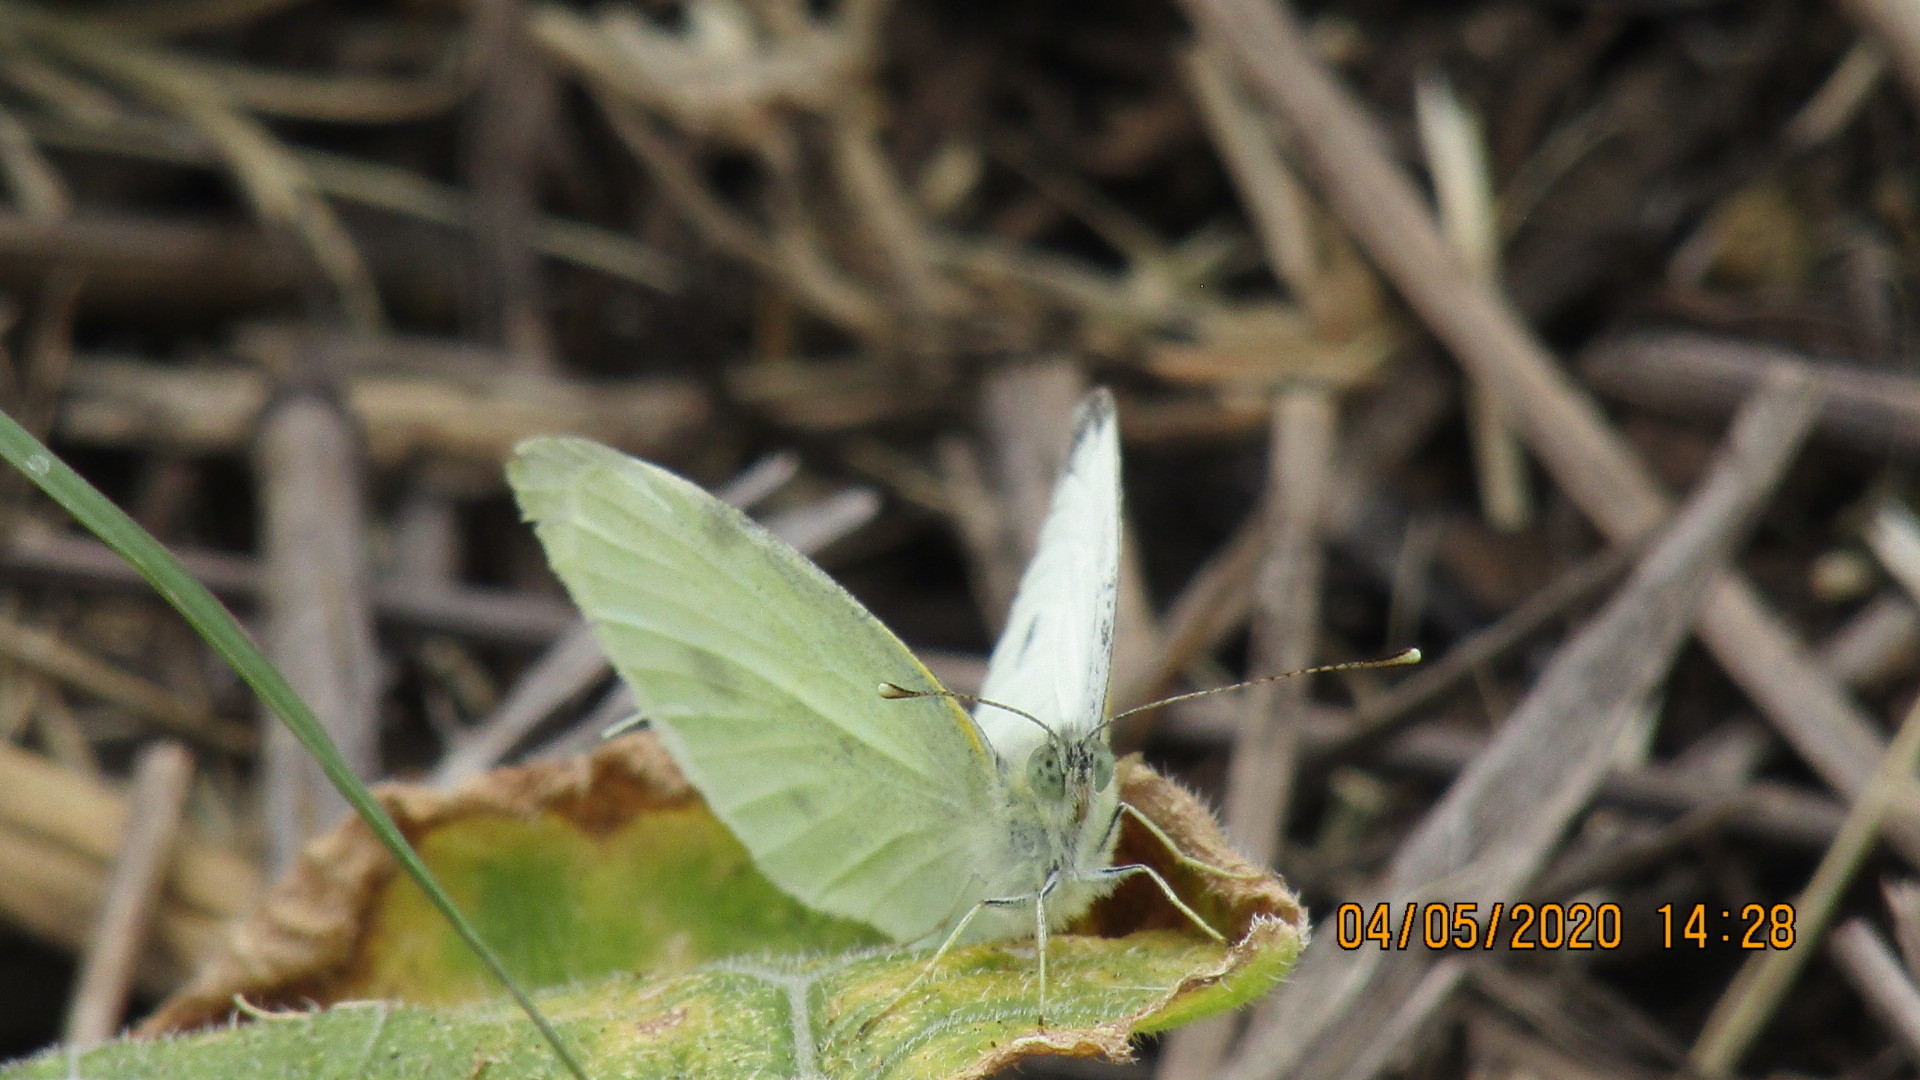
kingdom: Animalia
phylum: Arthropoda
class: Insecta
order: Lepidoptera
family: Pieridae
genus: Pieris
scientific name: Pieris rapae
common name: Small white
